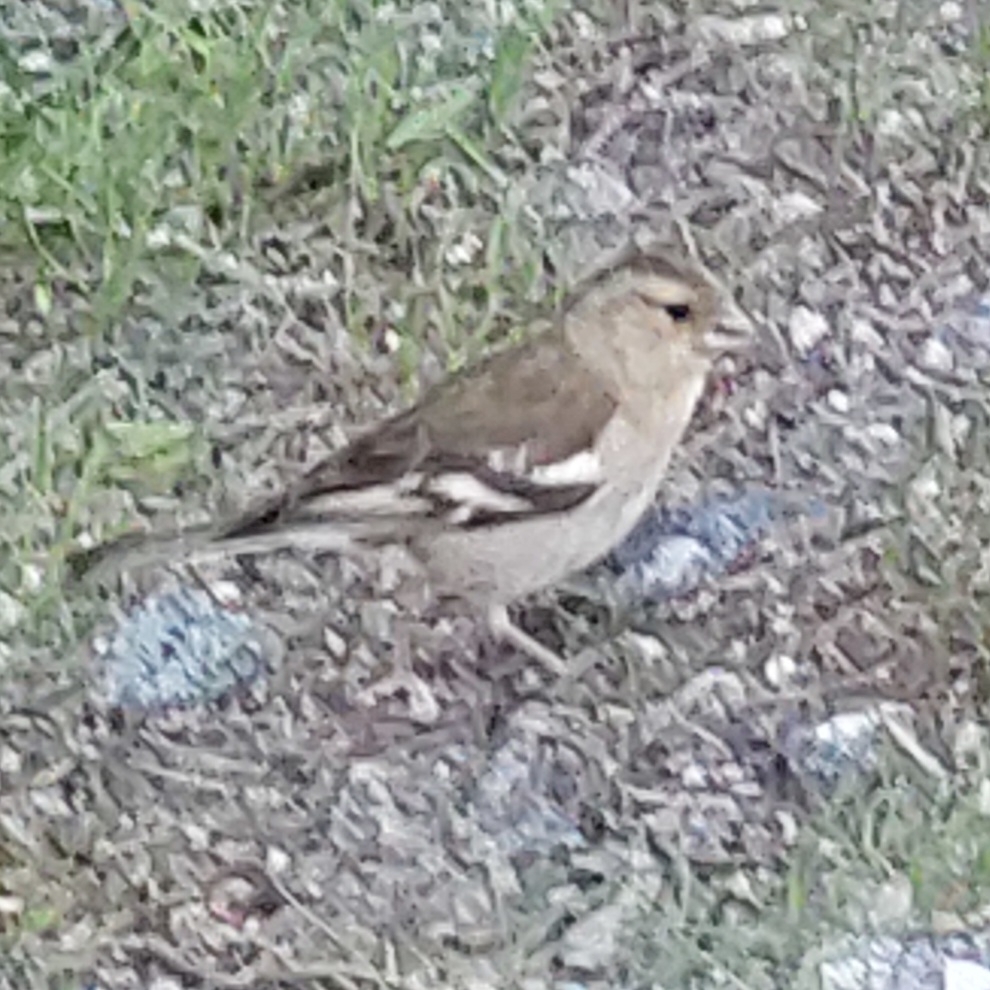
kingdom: Animalia
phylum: Chordata
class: Aves
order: Passeriformes
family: Fringillidae
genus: Fringilla
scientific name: Fringilla coelebs
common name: Common chaffinch
